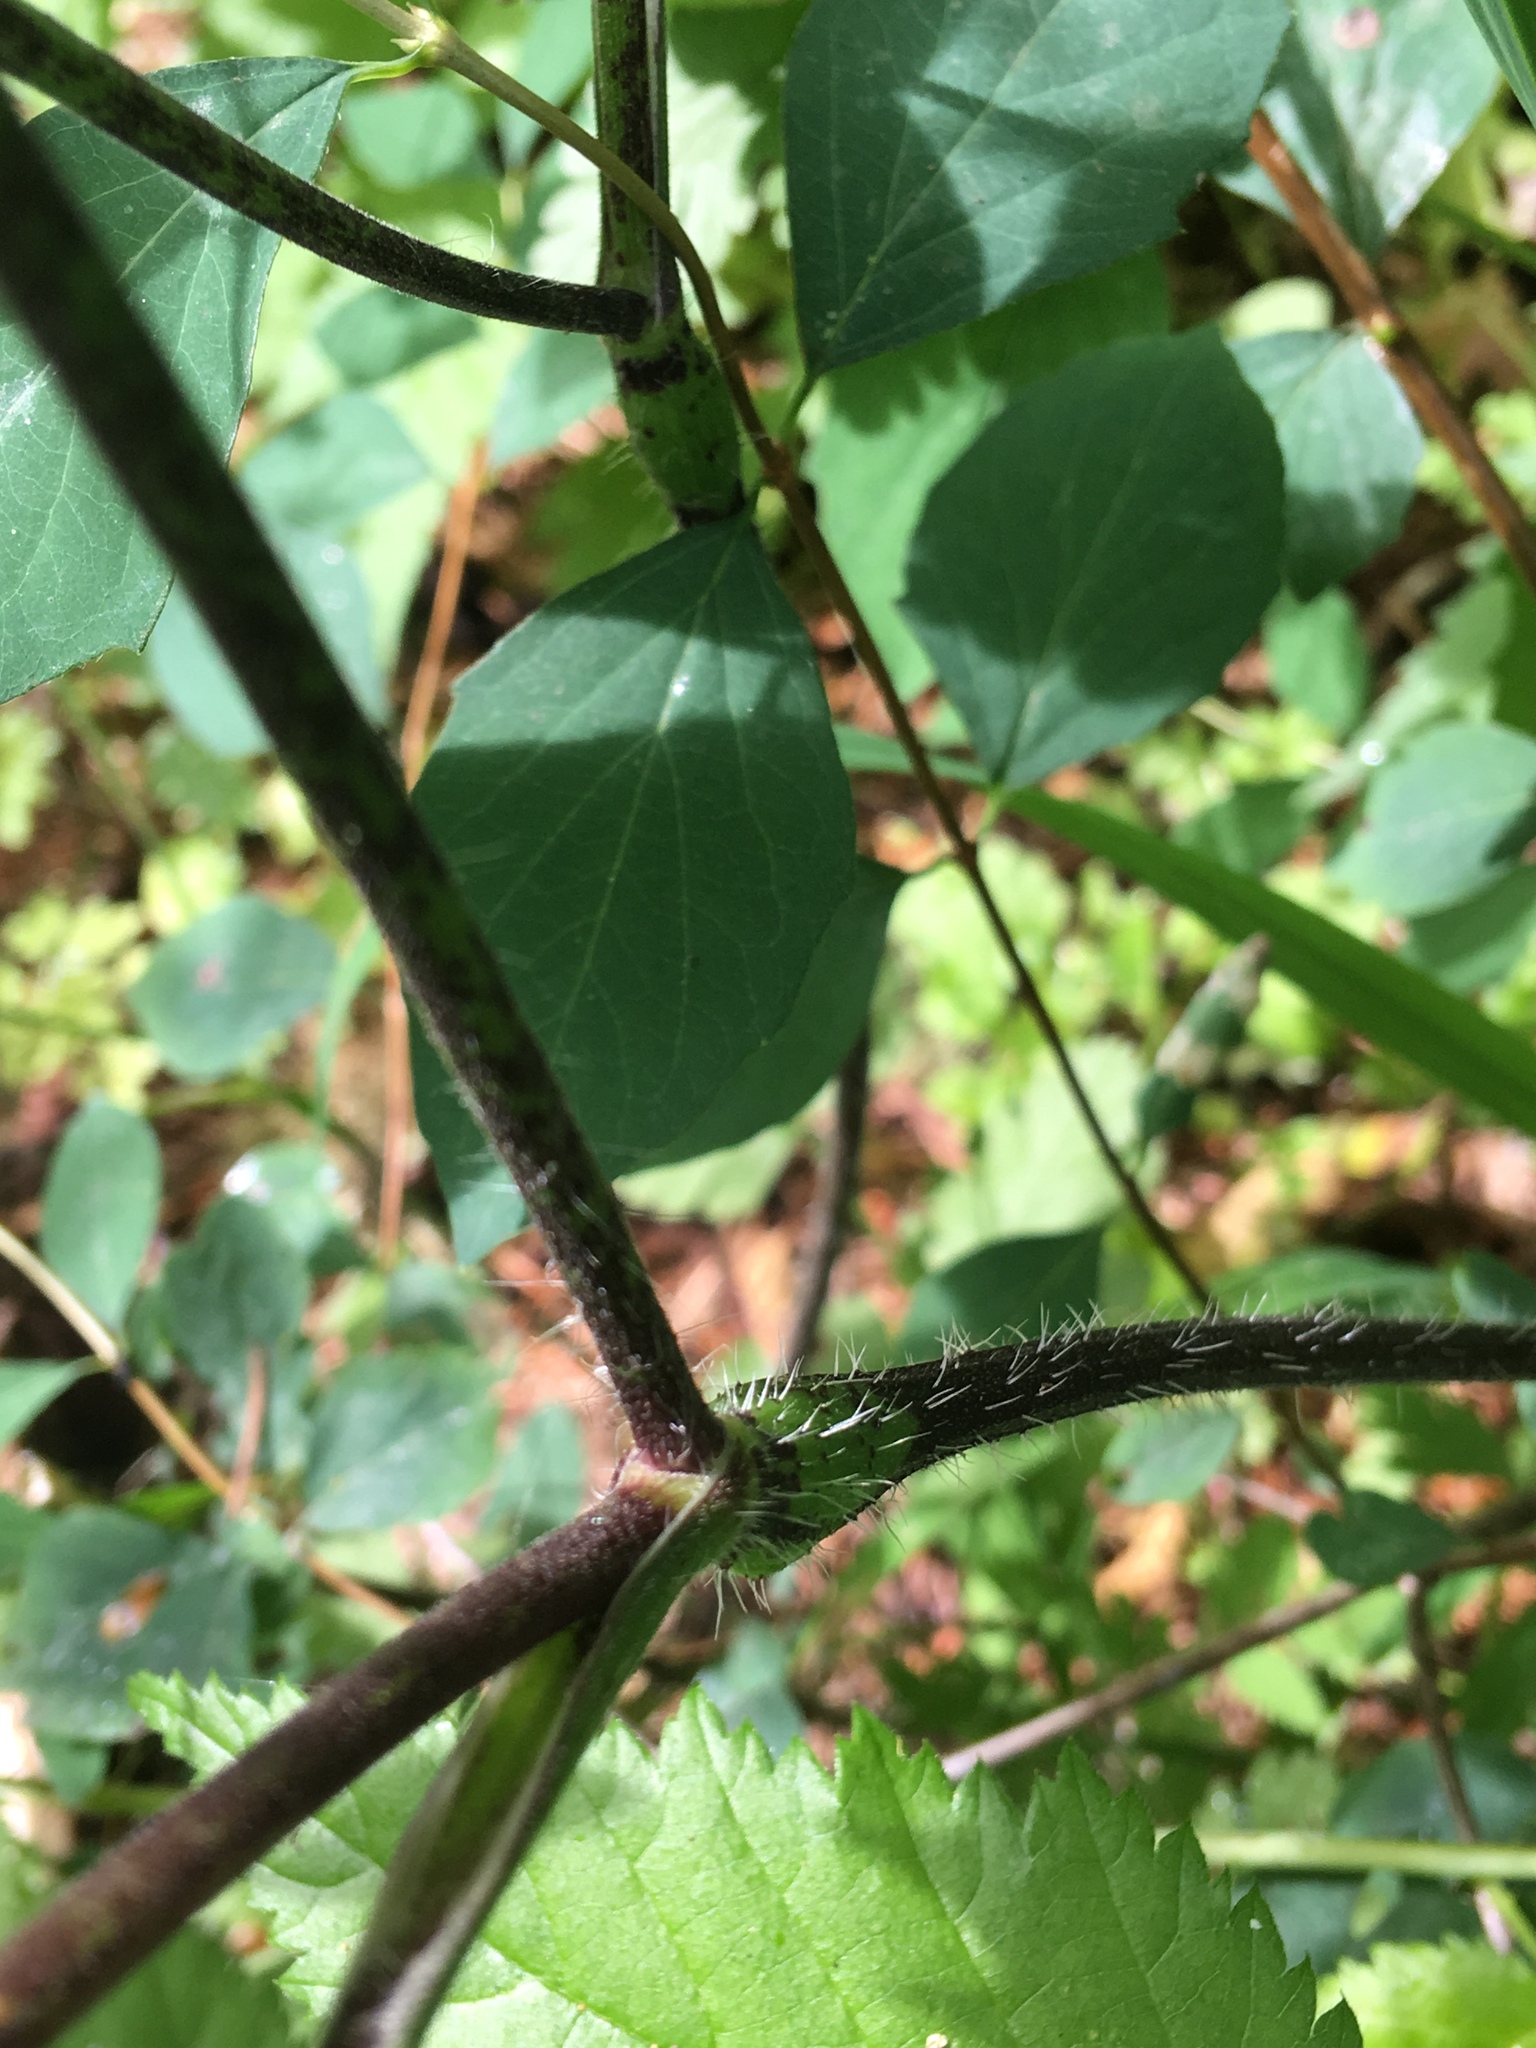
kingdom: Plantae
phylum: Tracheophyta
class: Magnoliopsida
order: Apiales
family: Apiaceae
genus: Chaerophyllum
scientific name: Chaerophyllum temulum
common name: Rough chervil
